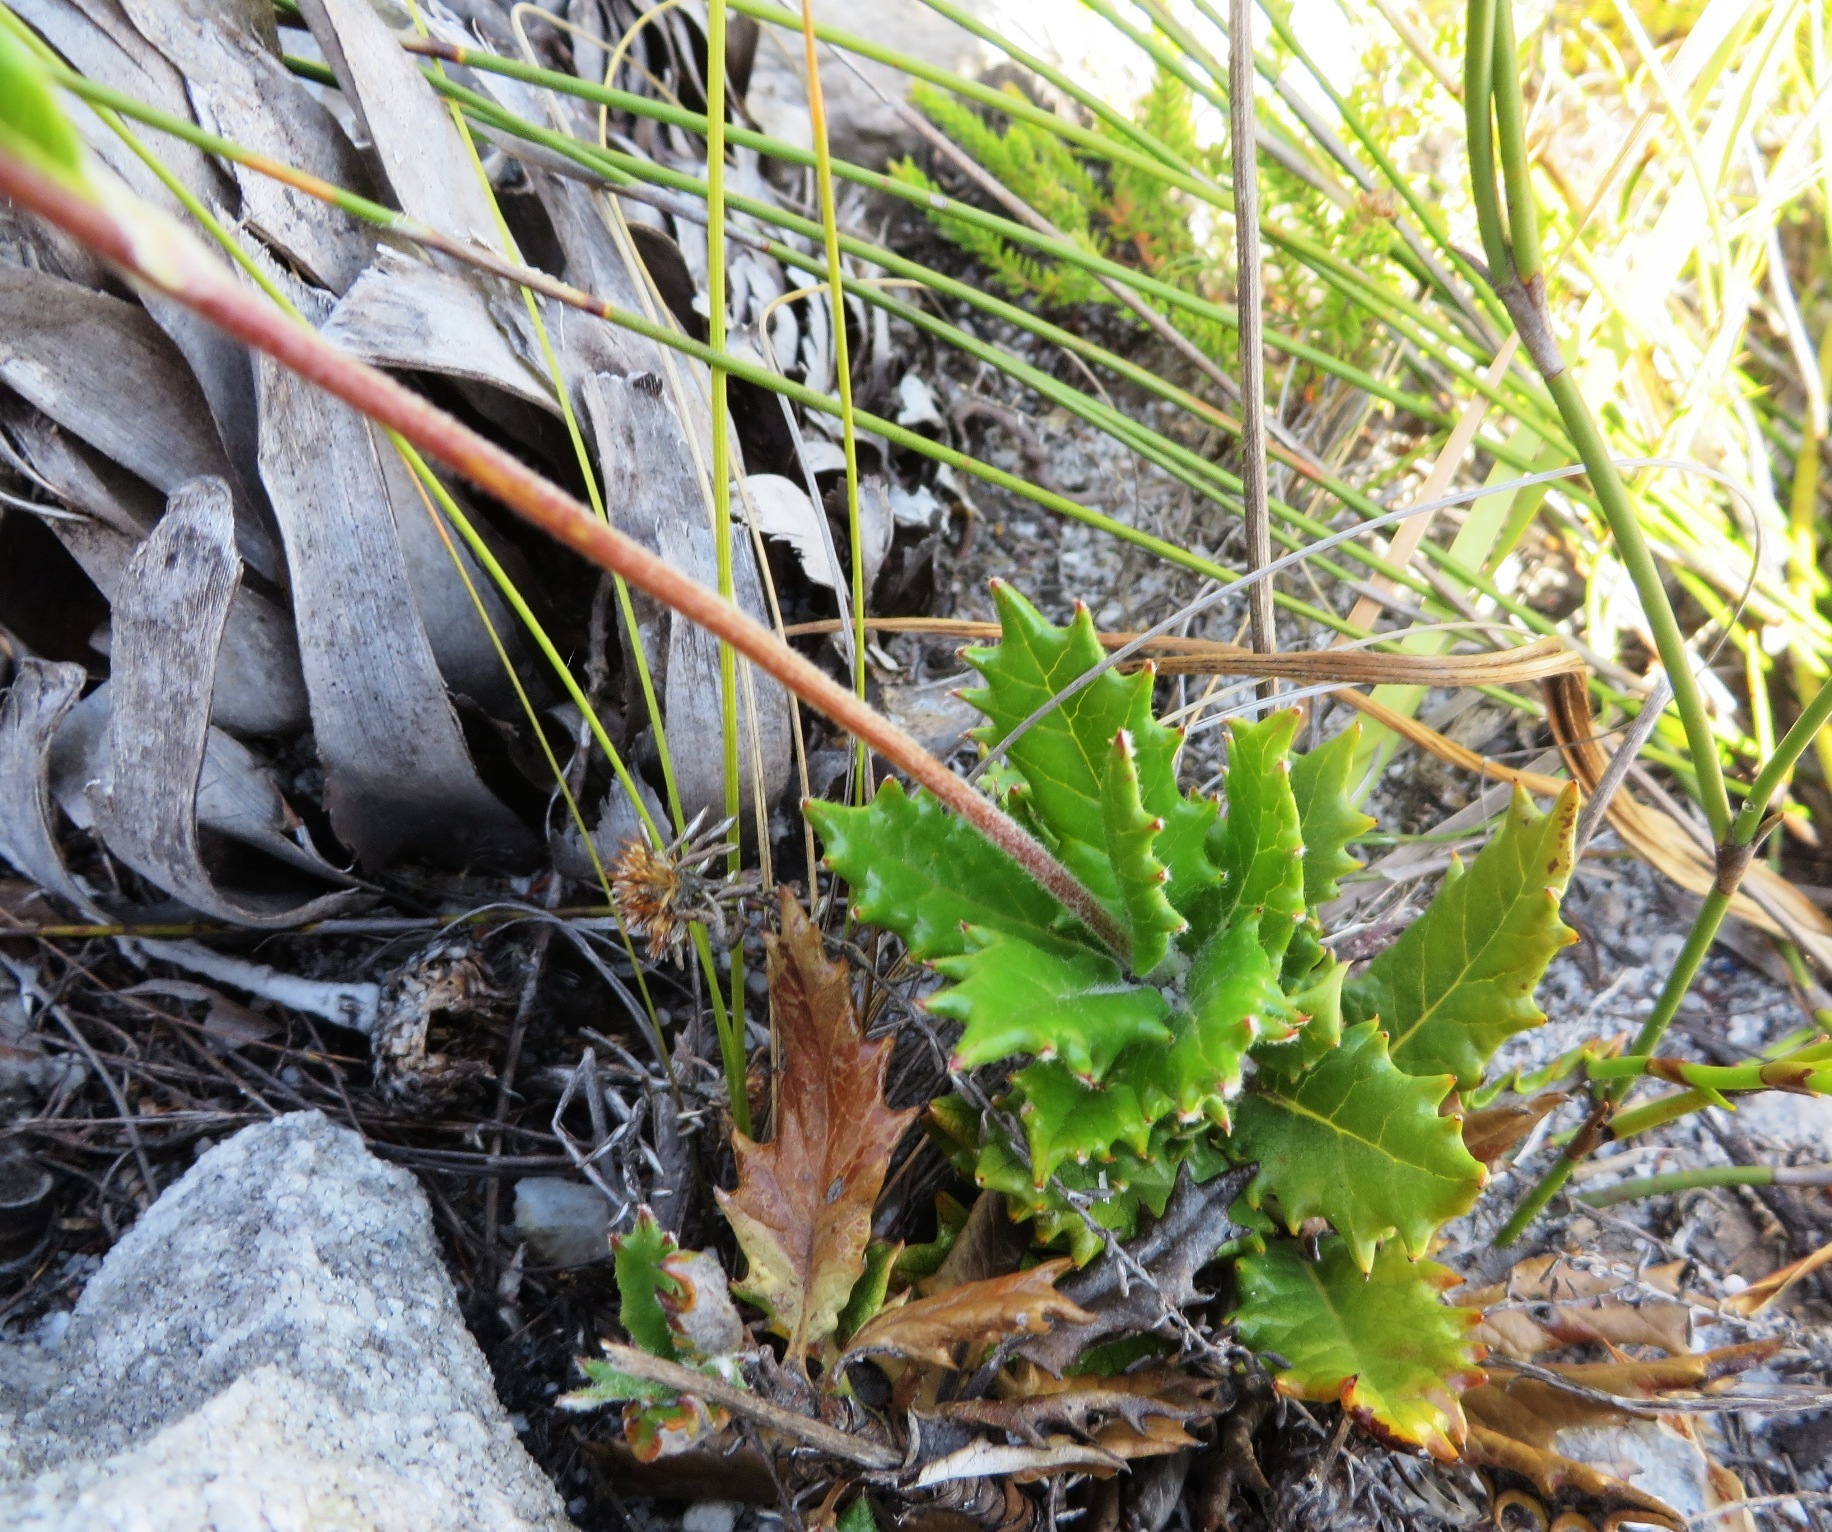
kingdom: Plantae
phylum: Tracheophyta
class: Magnoliopsida
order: Apiales
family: Apiaceae
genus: Hermas
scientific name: Hermas quinquedentata
